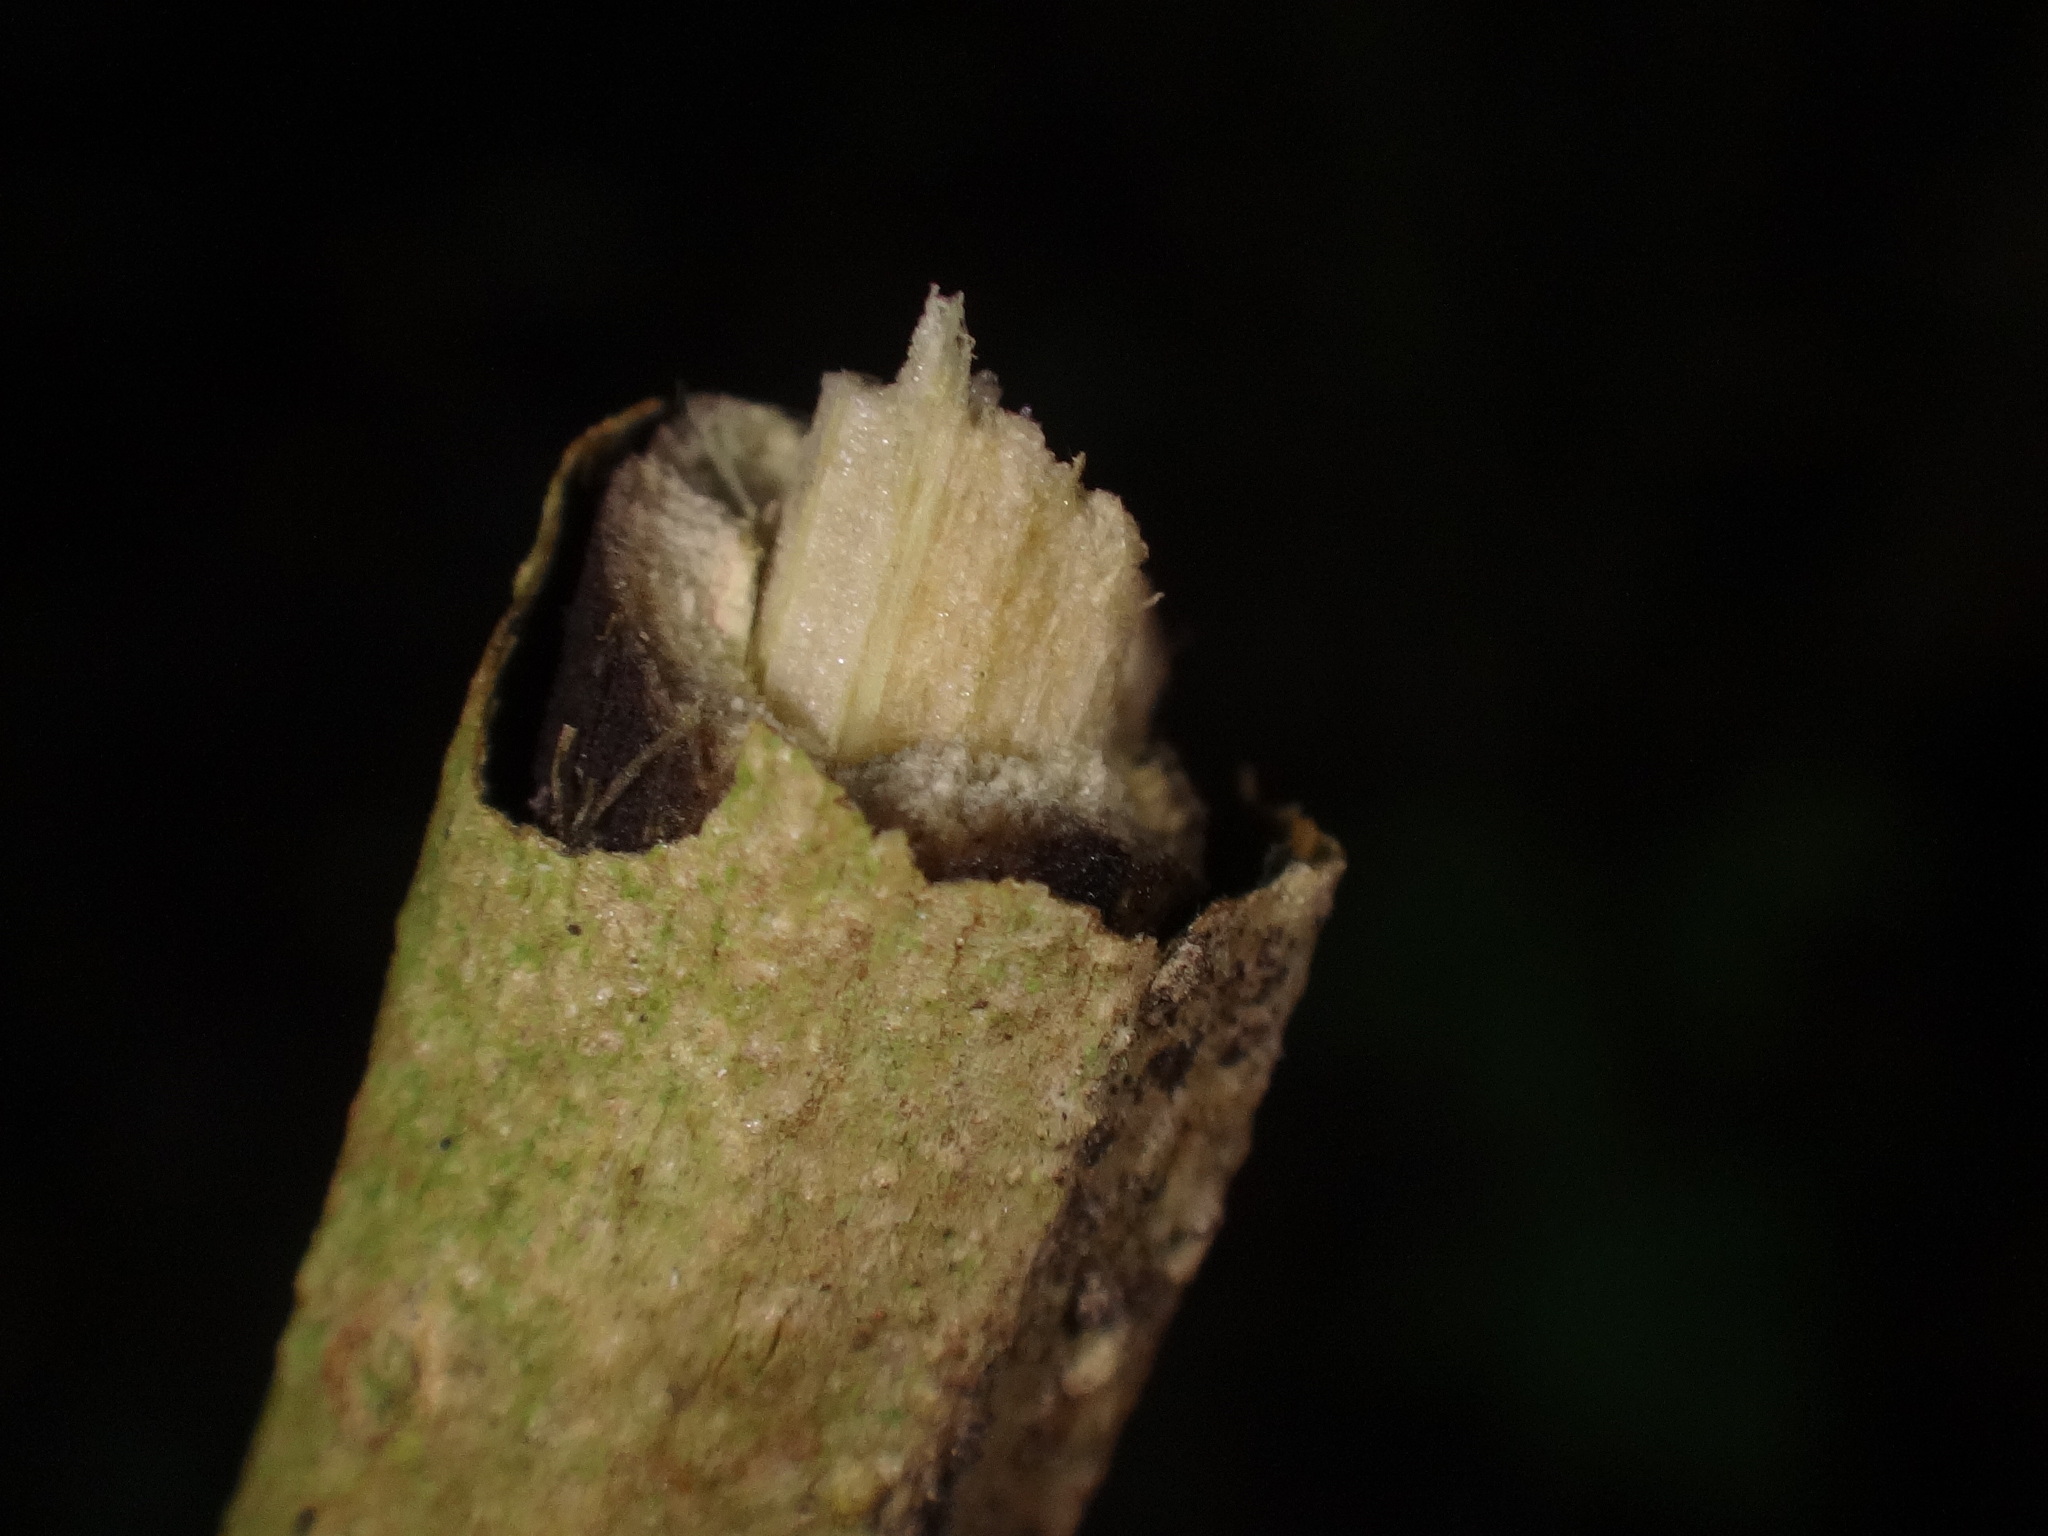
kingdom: Plantae
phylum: Tracheophyta
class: Magnoliopsida
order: Dipsacales
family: Viburnaceae
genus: Sambucus
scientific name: Sambucus palmensis
